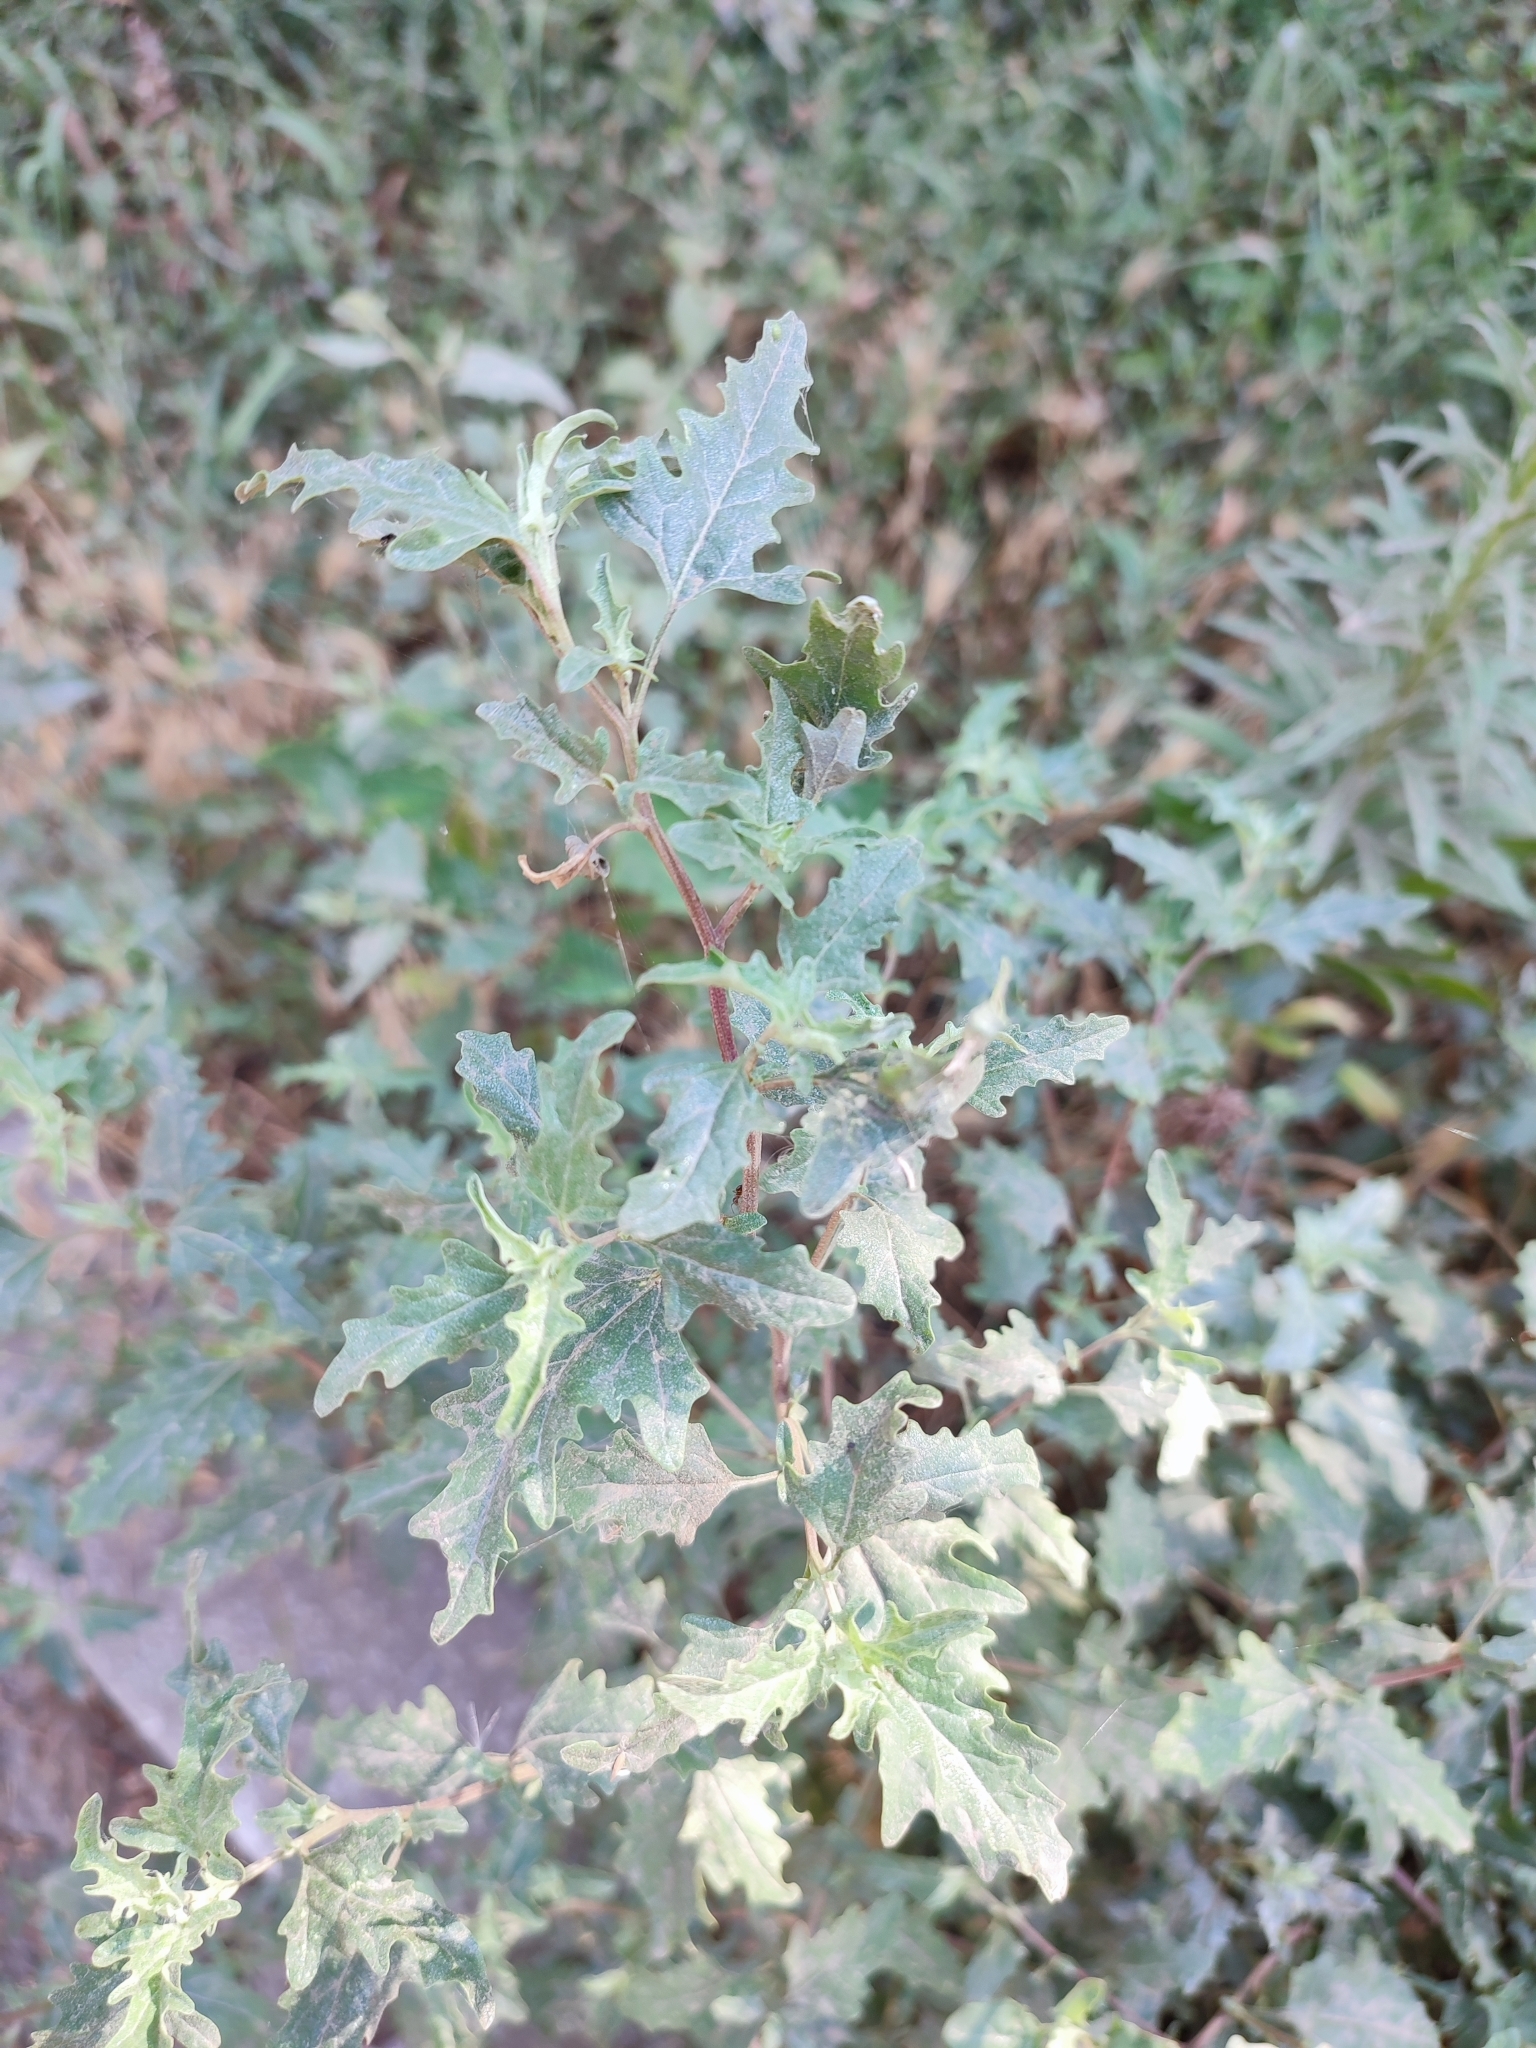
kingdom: Plantae
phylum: Tracheophyta
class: Magnoliopsida
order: Caryophyllales
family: Amaranthaceae
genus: Atriplex
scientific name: Atriplex tatarica
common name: Tatarian orache
